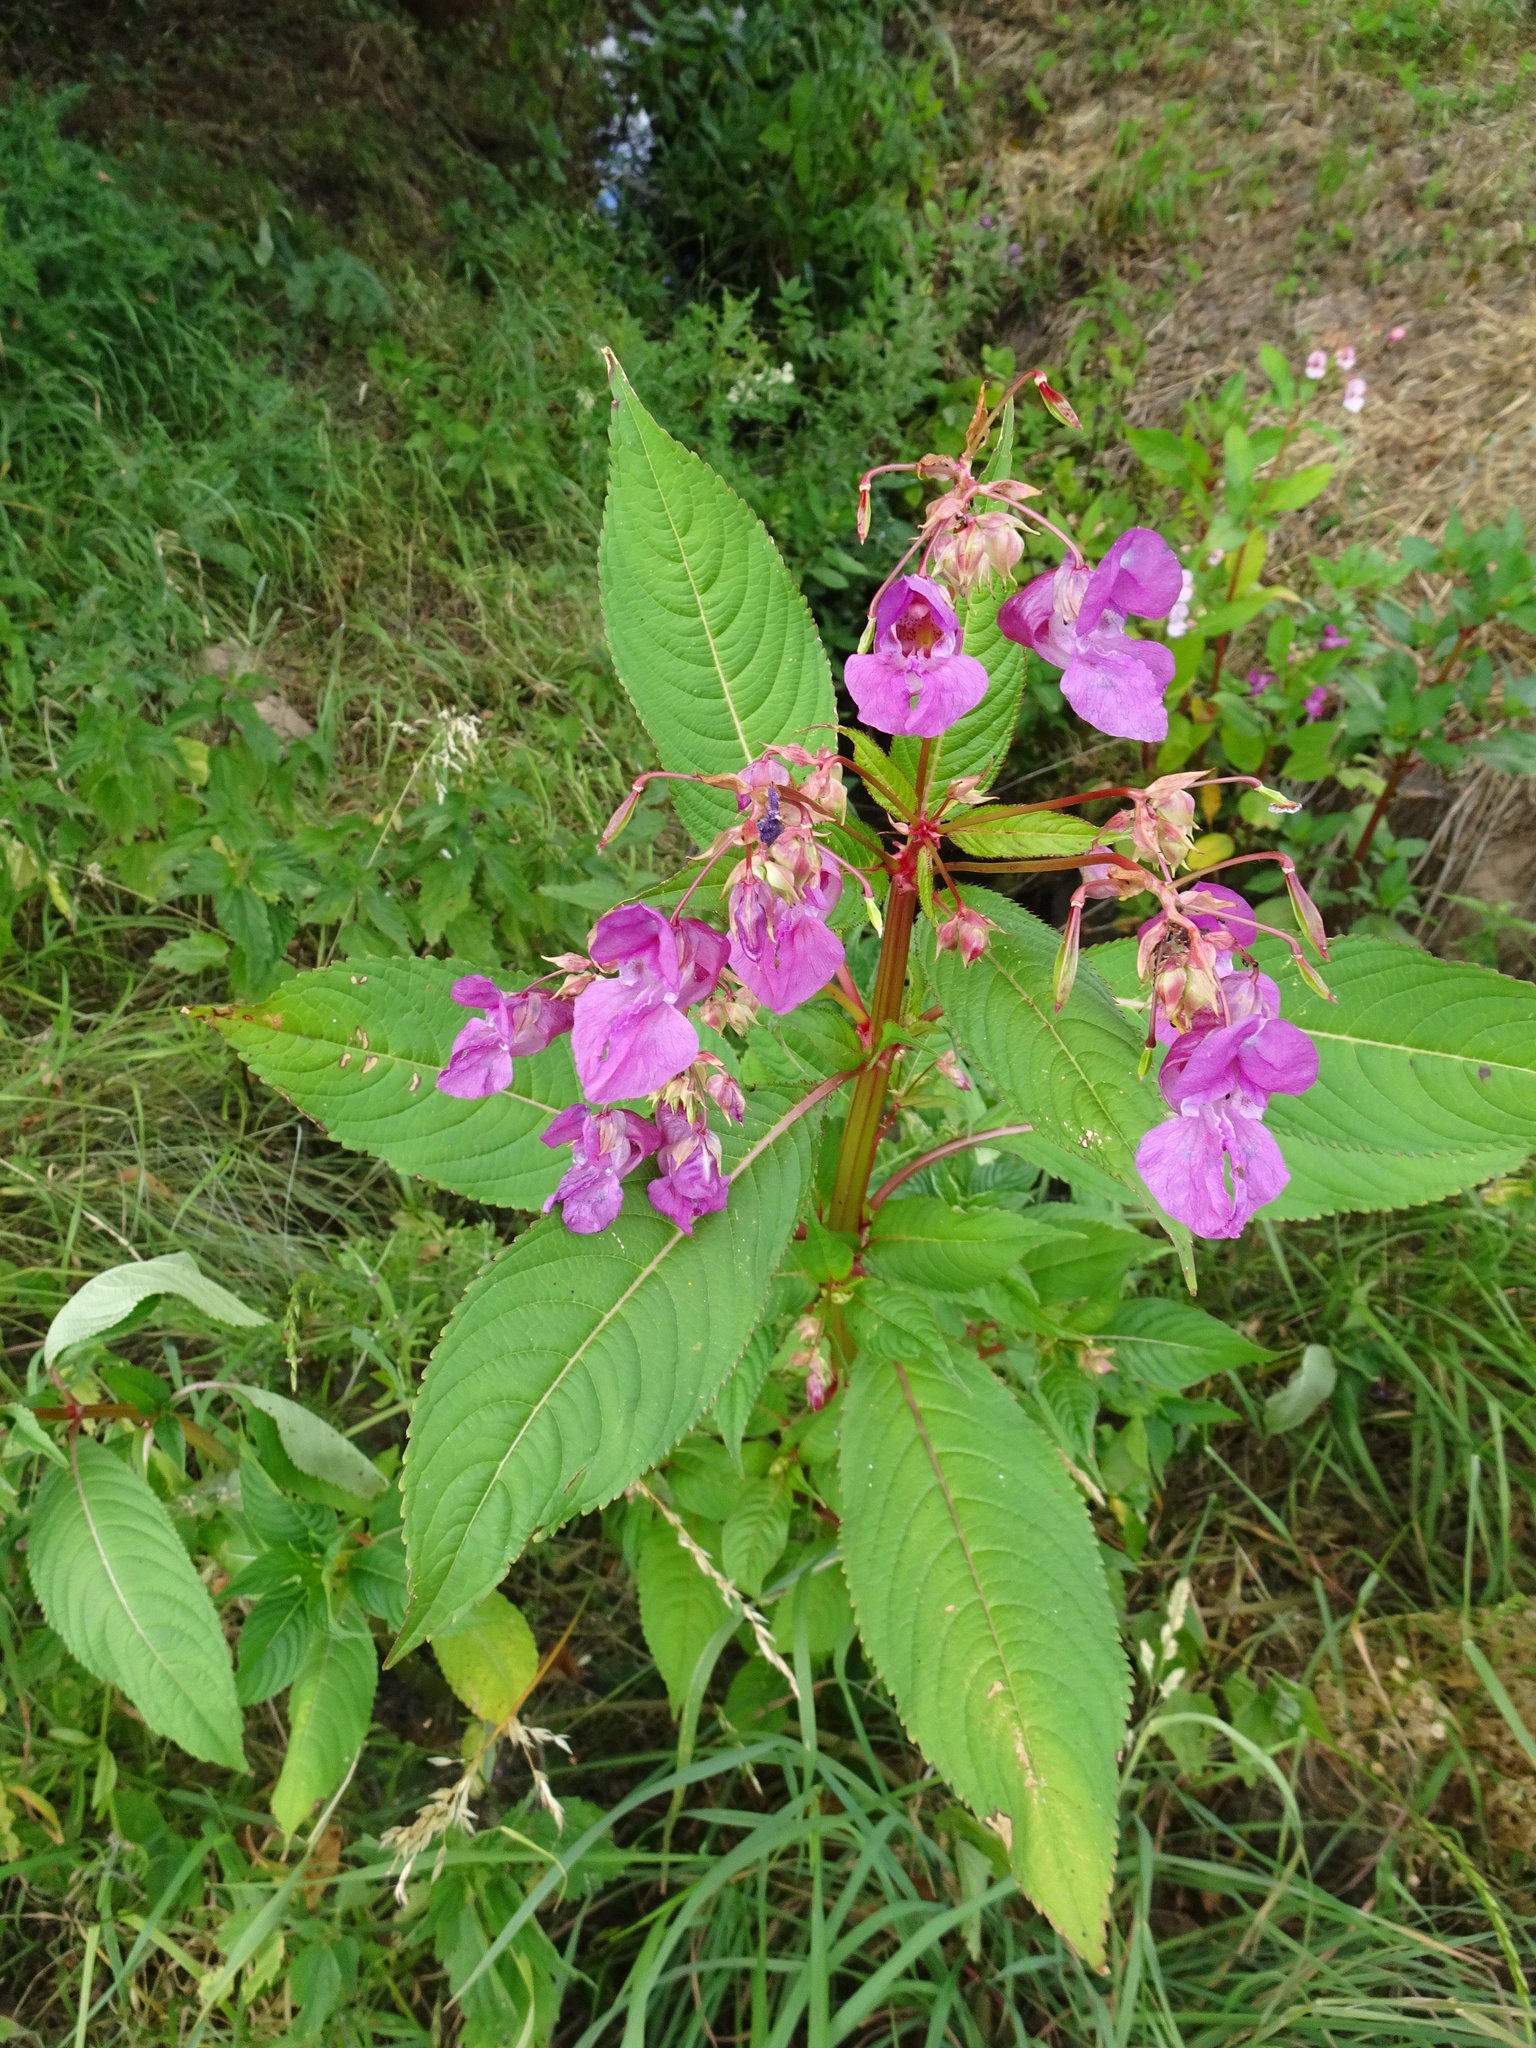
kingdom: Plantae
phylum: Tracheophyta
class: Magnoliopsida
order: Ericales
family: Balsaminaceae
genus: Impatiens
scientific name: Impatiens glandulifera
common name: Himalayan balsam
